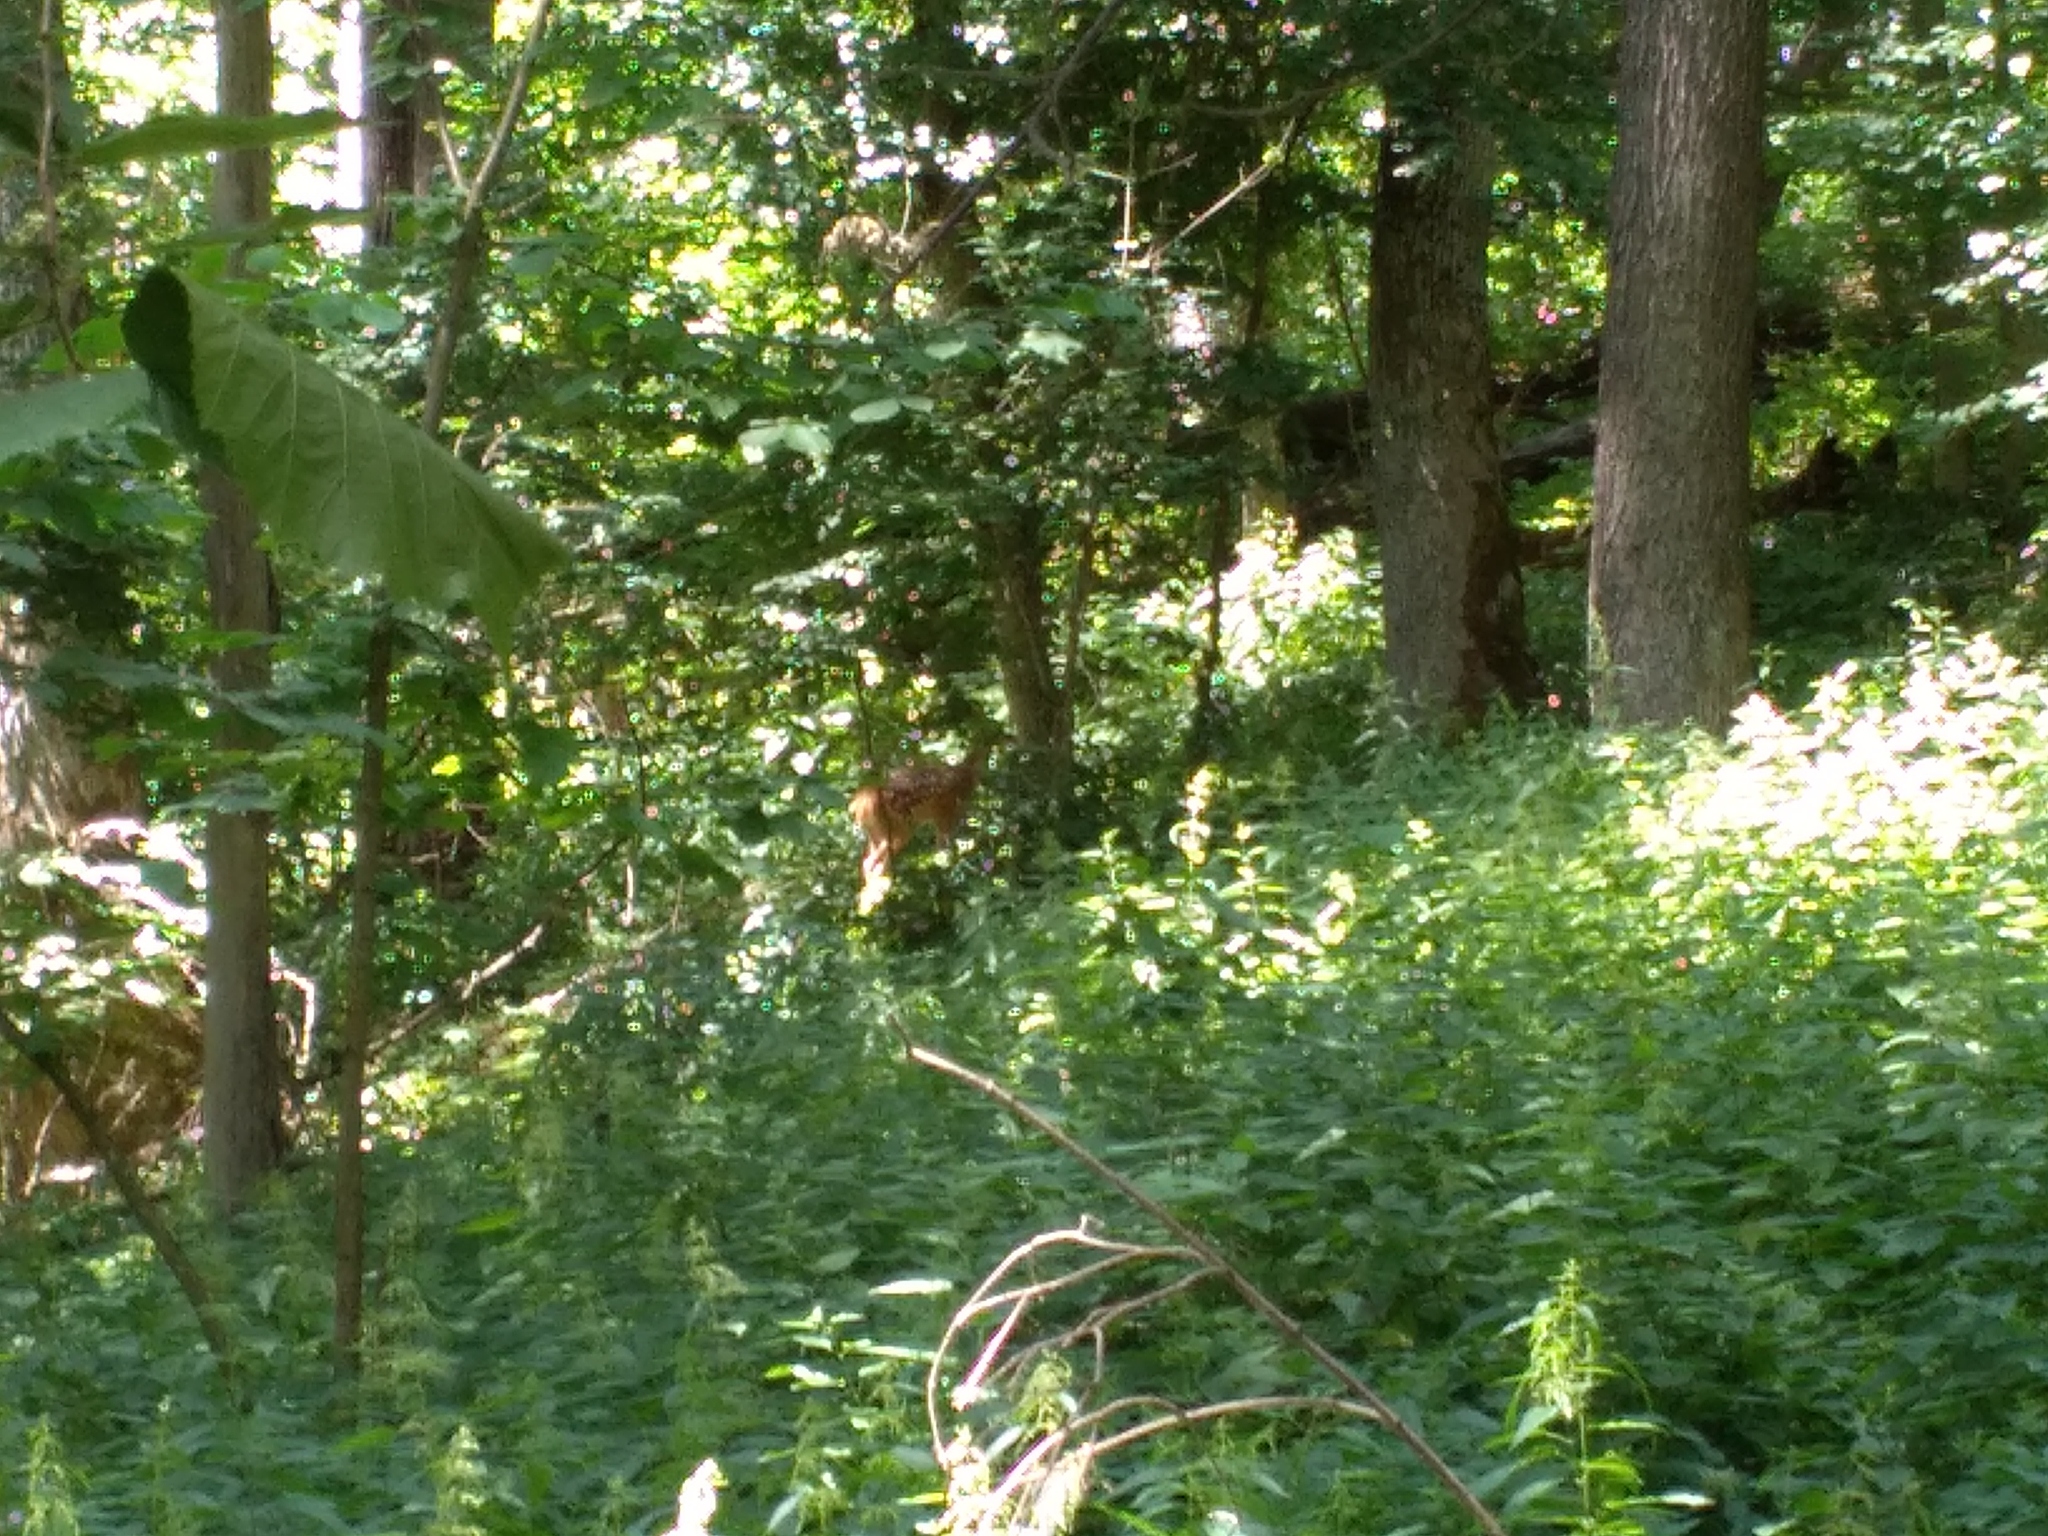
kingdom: Animalia
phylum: Chordata
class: Mammalia
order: Artiodactyla
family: Cervidae
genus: Cervus
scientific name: Cervus elaphus
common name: Red deer
